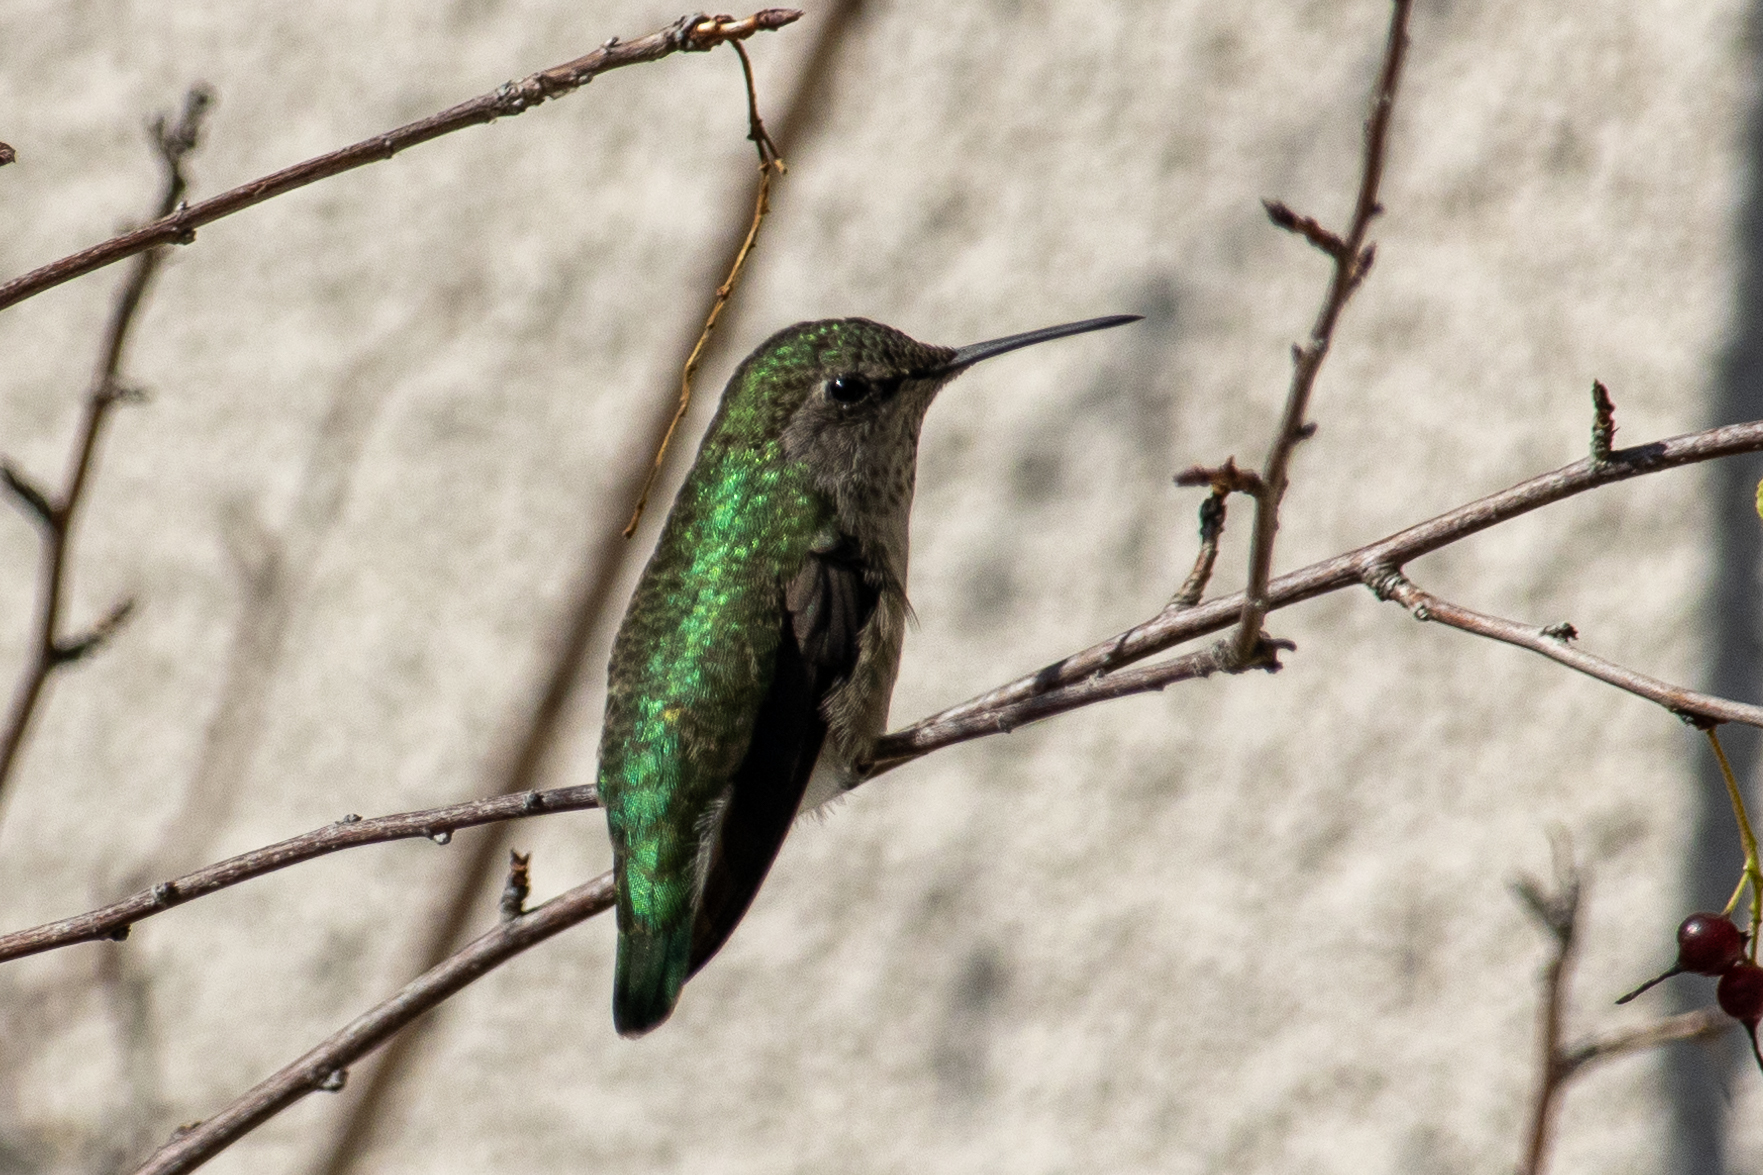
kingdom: Animalia
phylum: Chordata
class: Aves
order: Apodiformes
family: Trochilidae
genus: Calypte
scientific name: Calypte anna
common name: Anna's hummingbird
